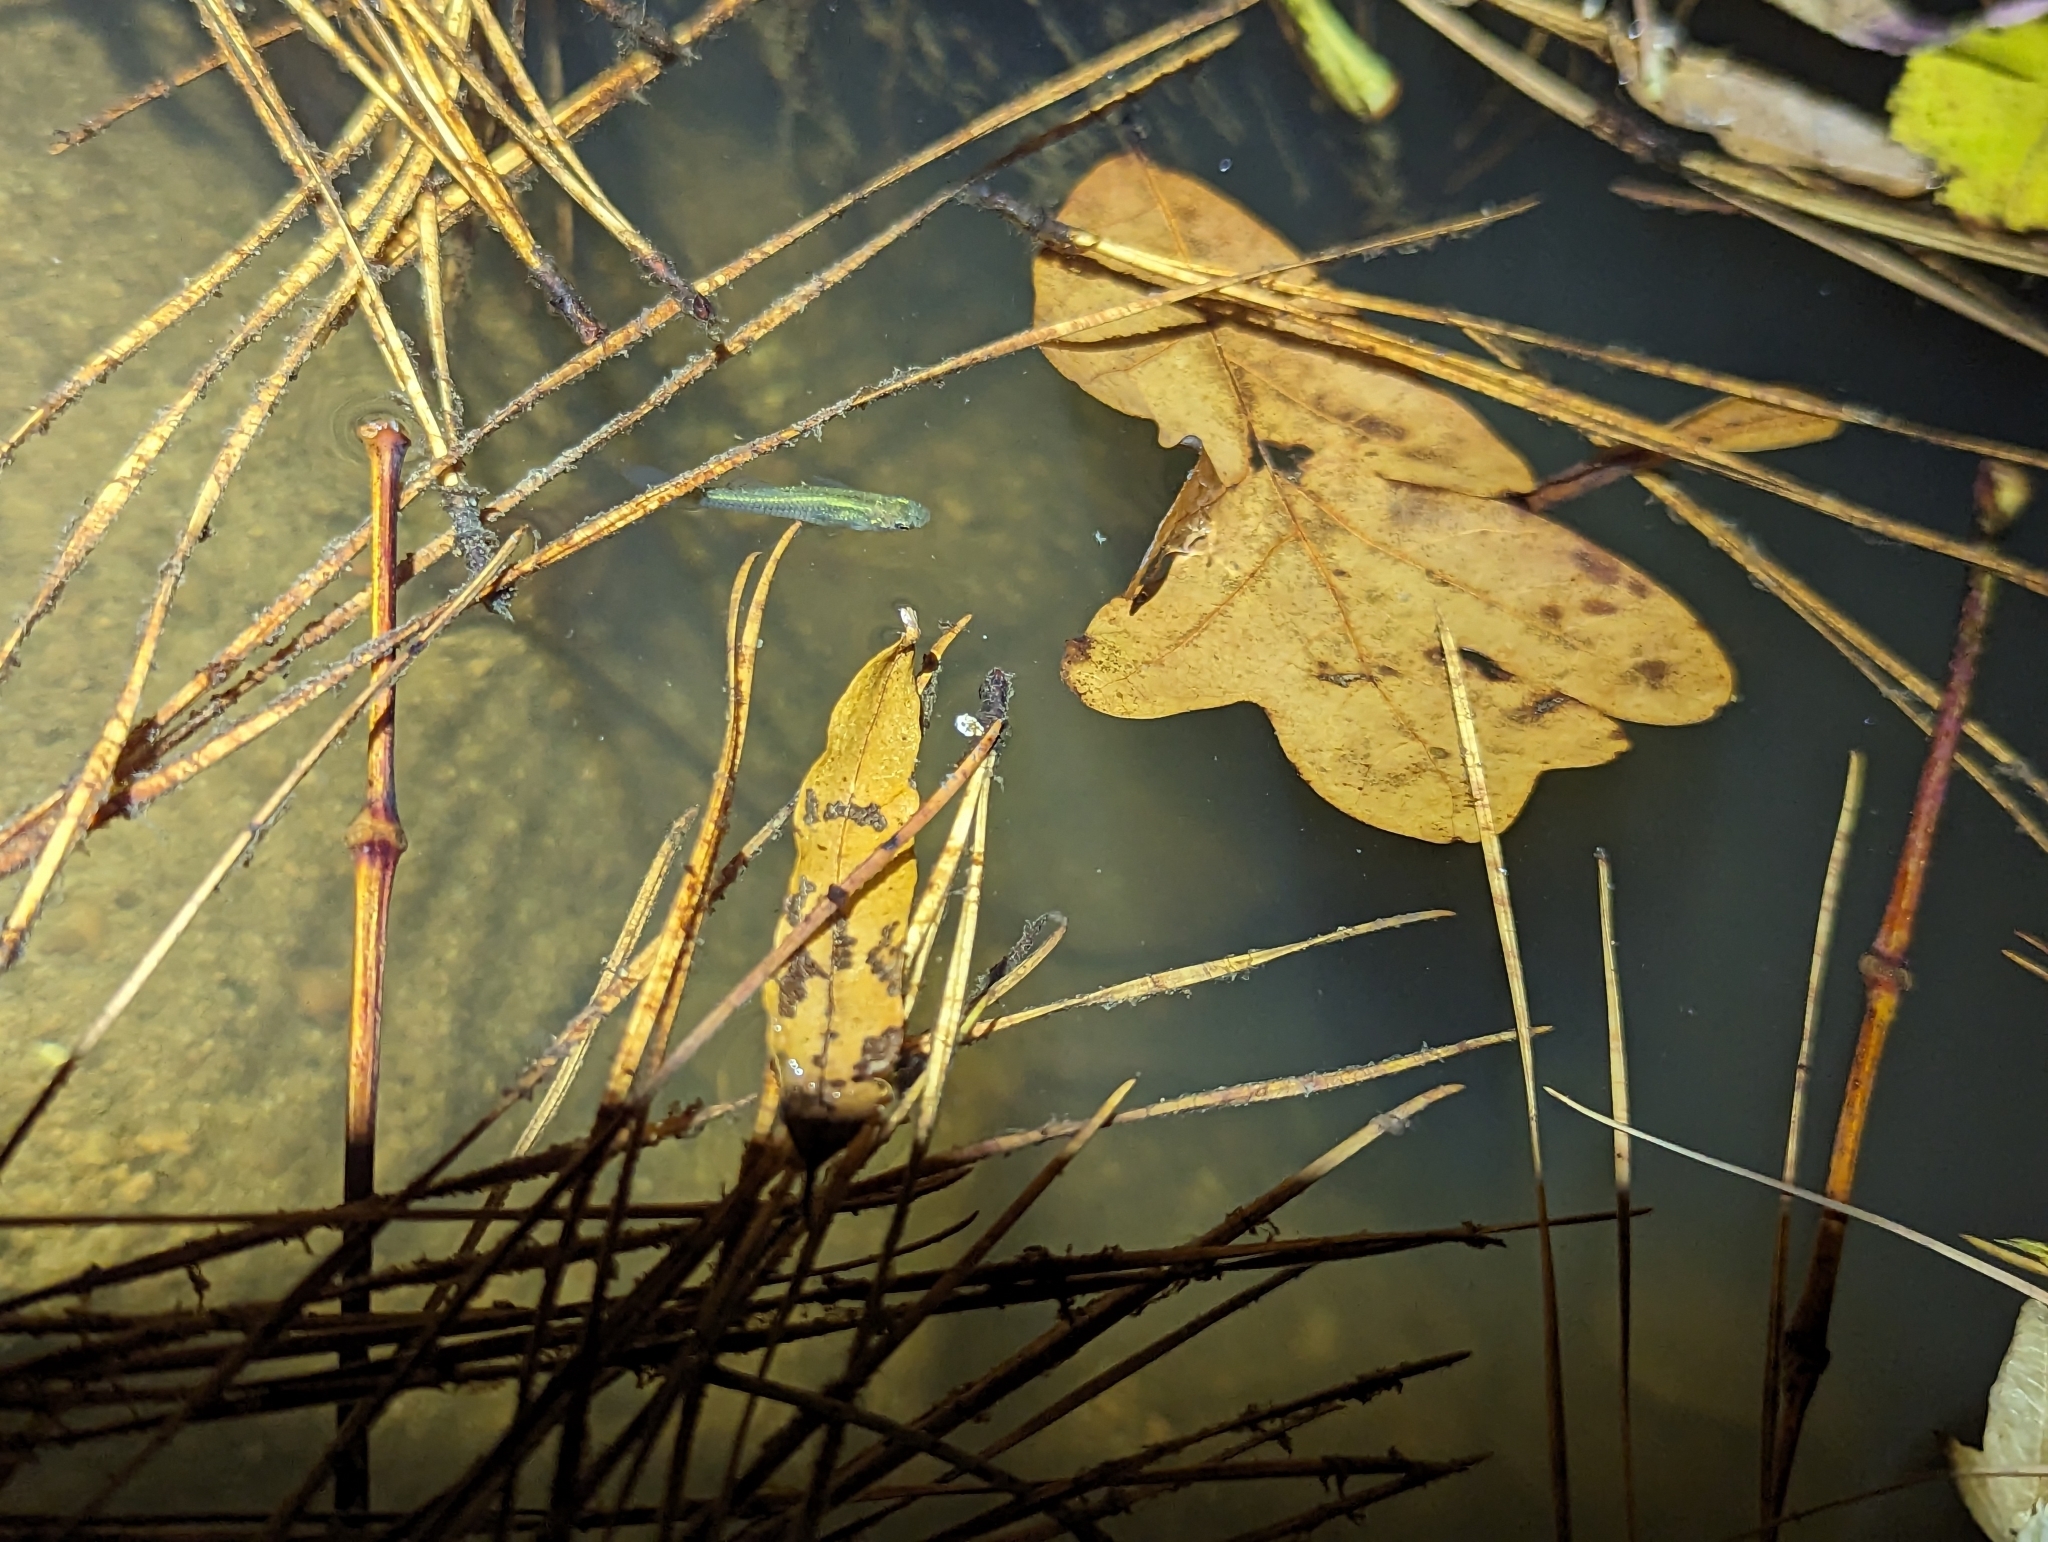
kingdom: Animalia
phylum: Chordata
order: Cyprinodontiformes
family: Poeciliidae
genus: Gambusia
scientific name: Gambusia holbrooki
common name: Eastern mosquitofish
